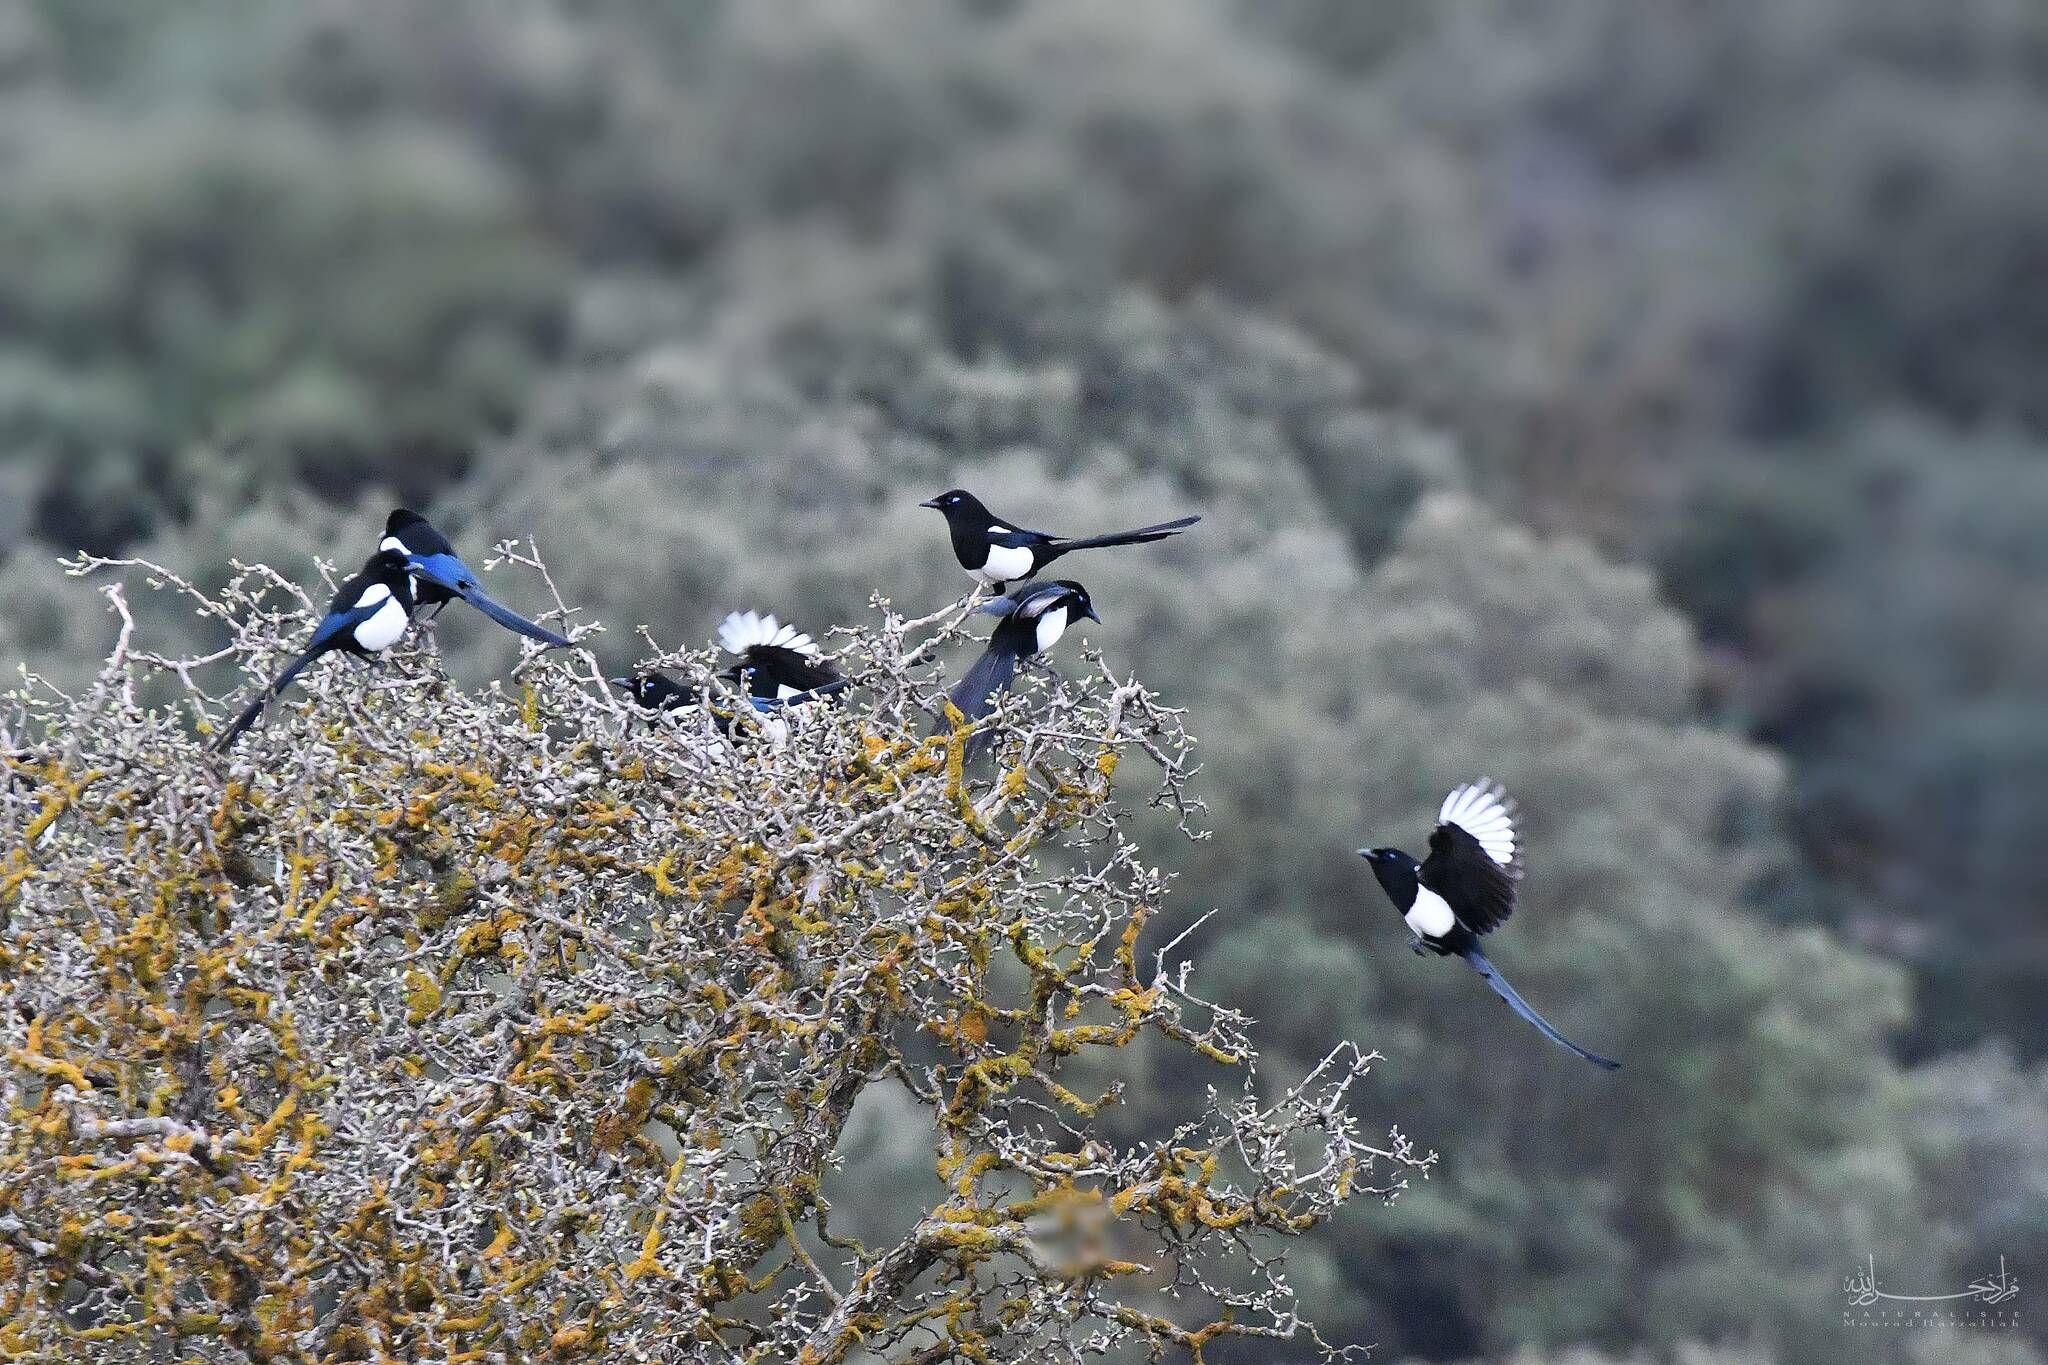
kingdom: Animalia
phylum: Chordata
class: Aves
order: Passeriformes
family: Corvidae
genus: Pica
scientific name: Pica mauritanica
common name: Maghreb magpie
